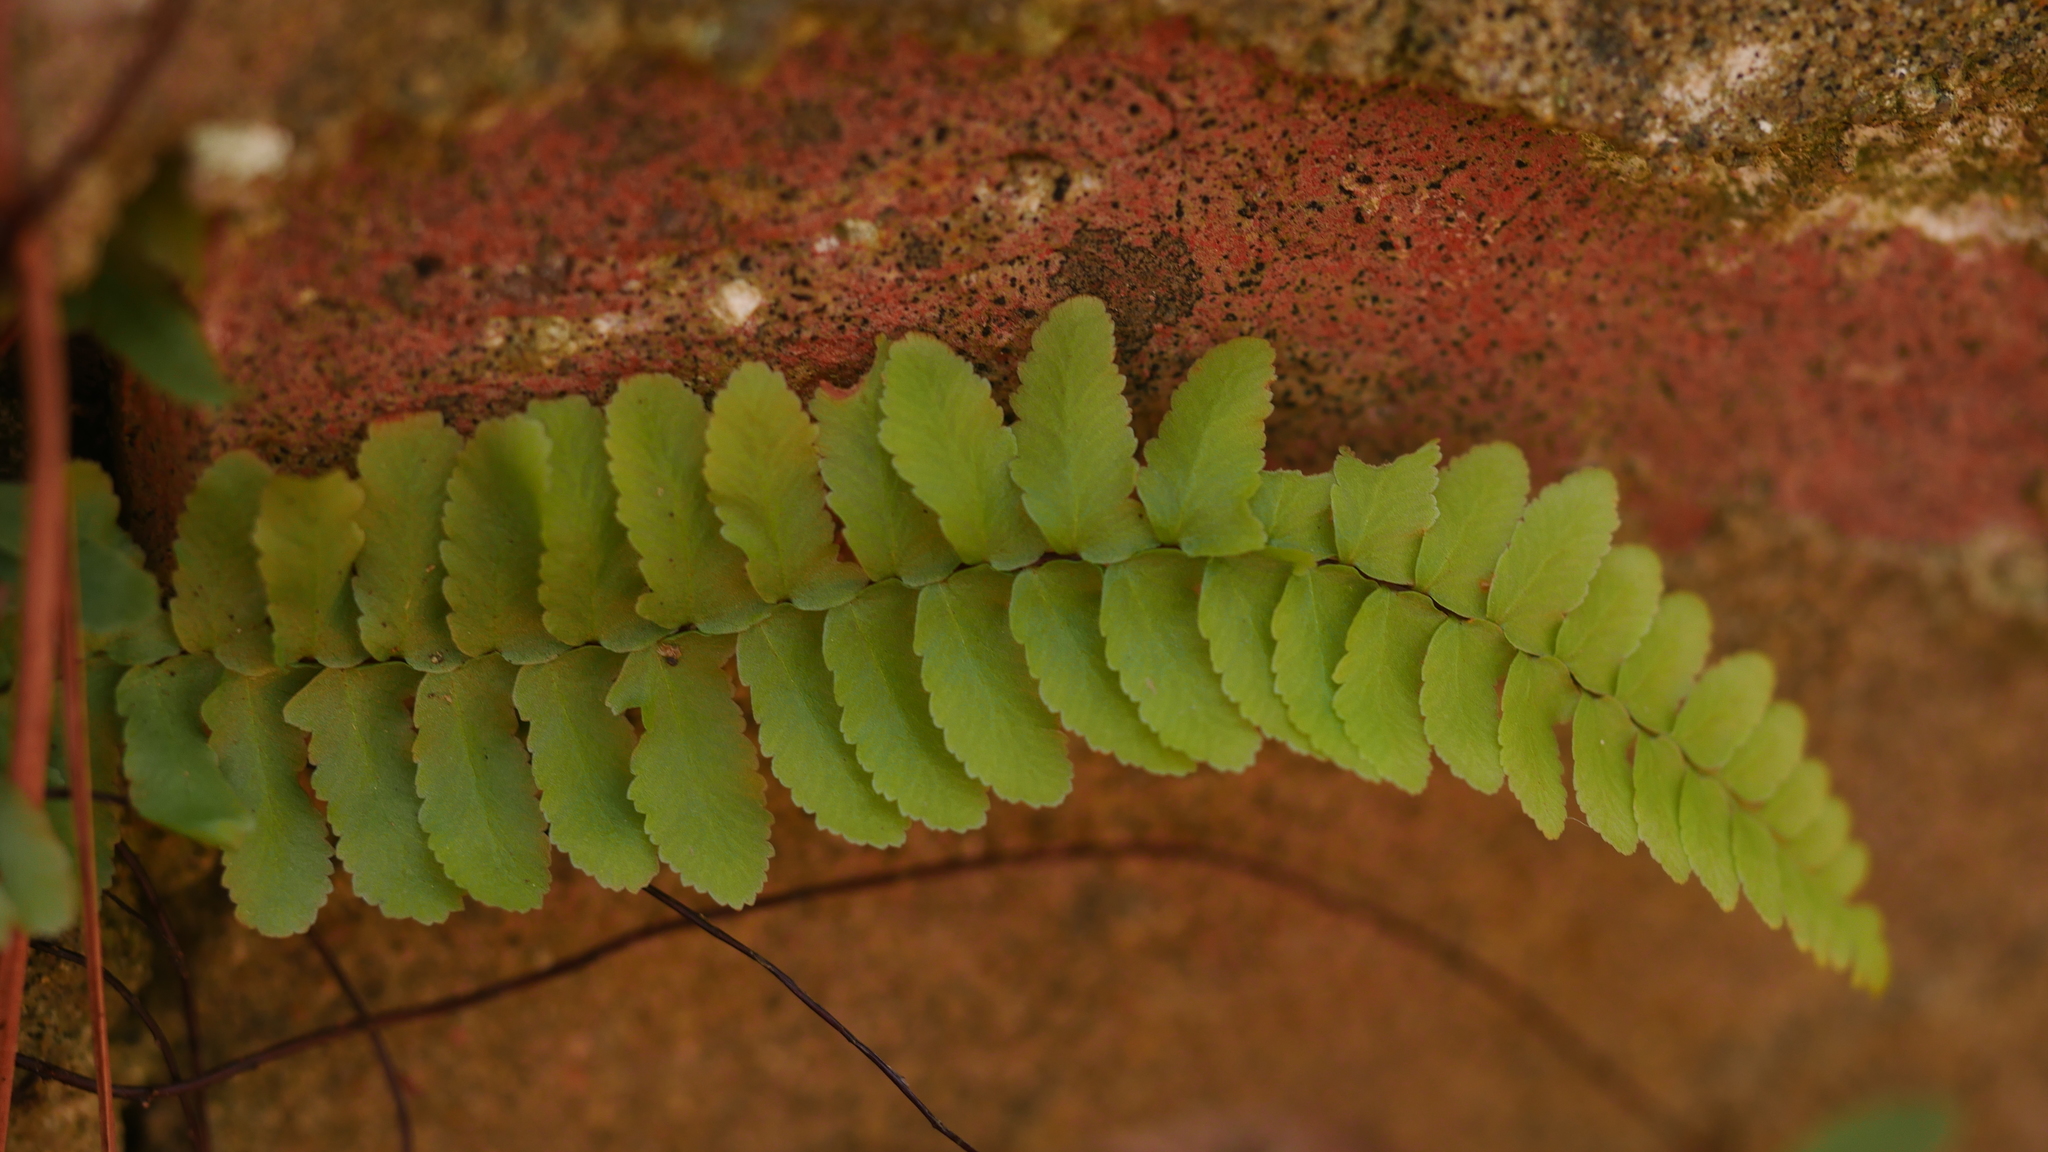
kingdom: Plantae
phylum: Tracheophyta
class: Polypodiopsida
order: Polypodiales
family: Aspleniaceae
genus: Asplenium
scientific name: Asplenium platyneuron
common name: Ebony spleenwort
